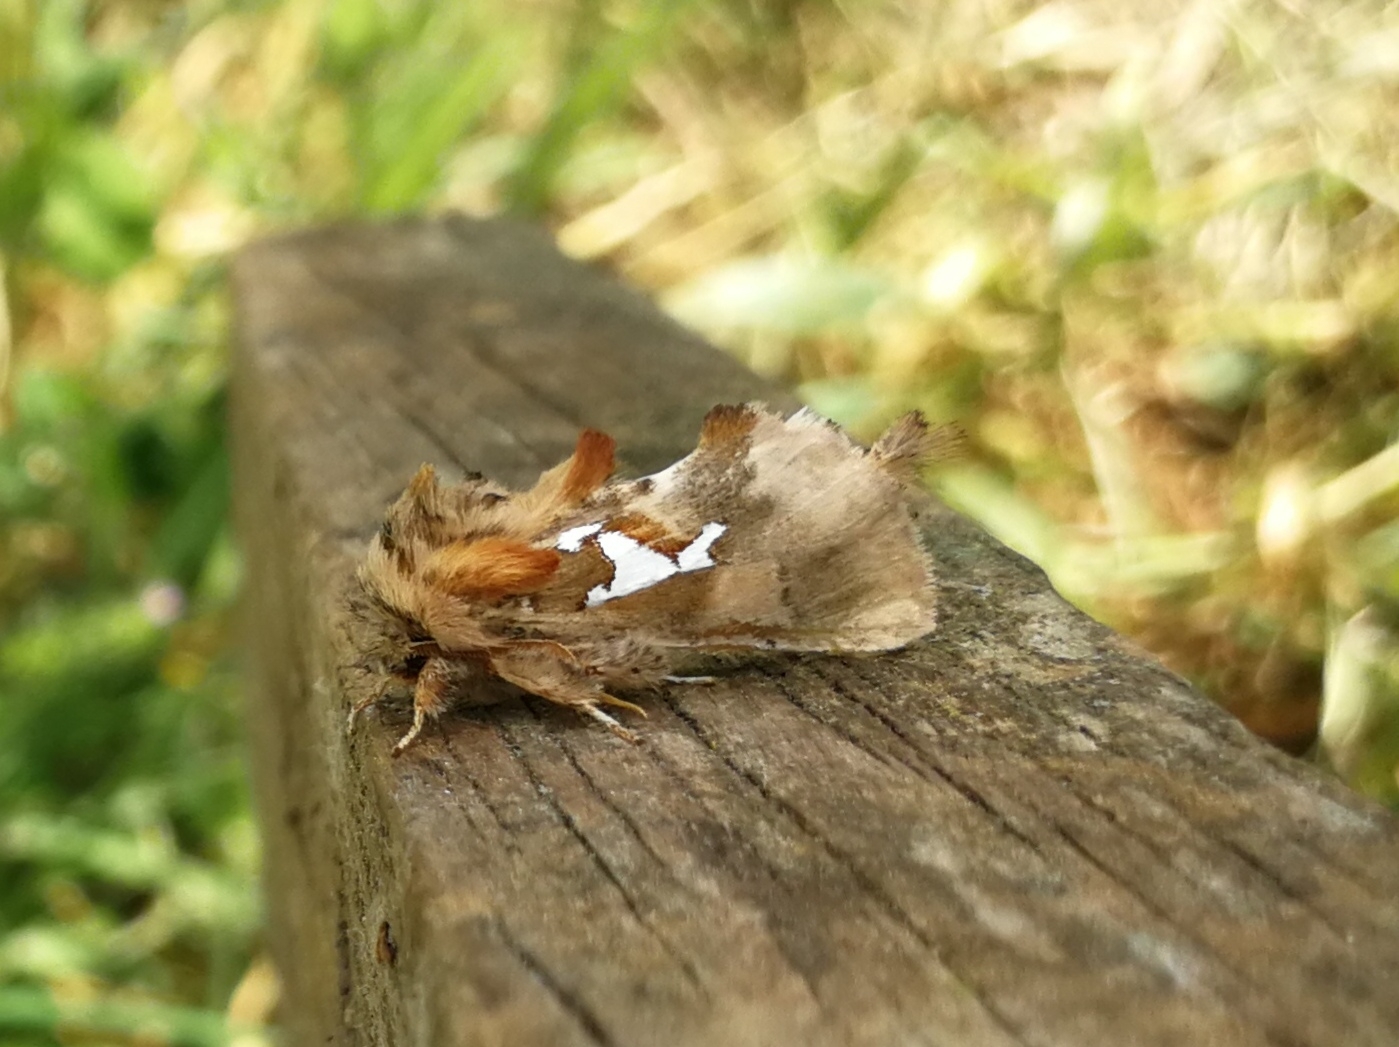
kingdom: Animalia
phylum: Arthropoda
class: Insecta
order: Lepidoptera
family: Notodontidae
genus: Spatalia
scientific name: Spatalia argentina
